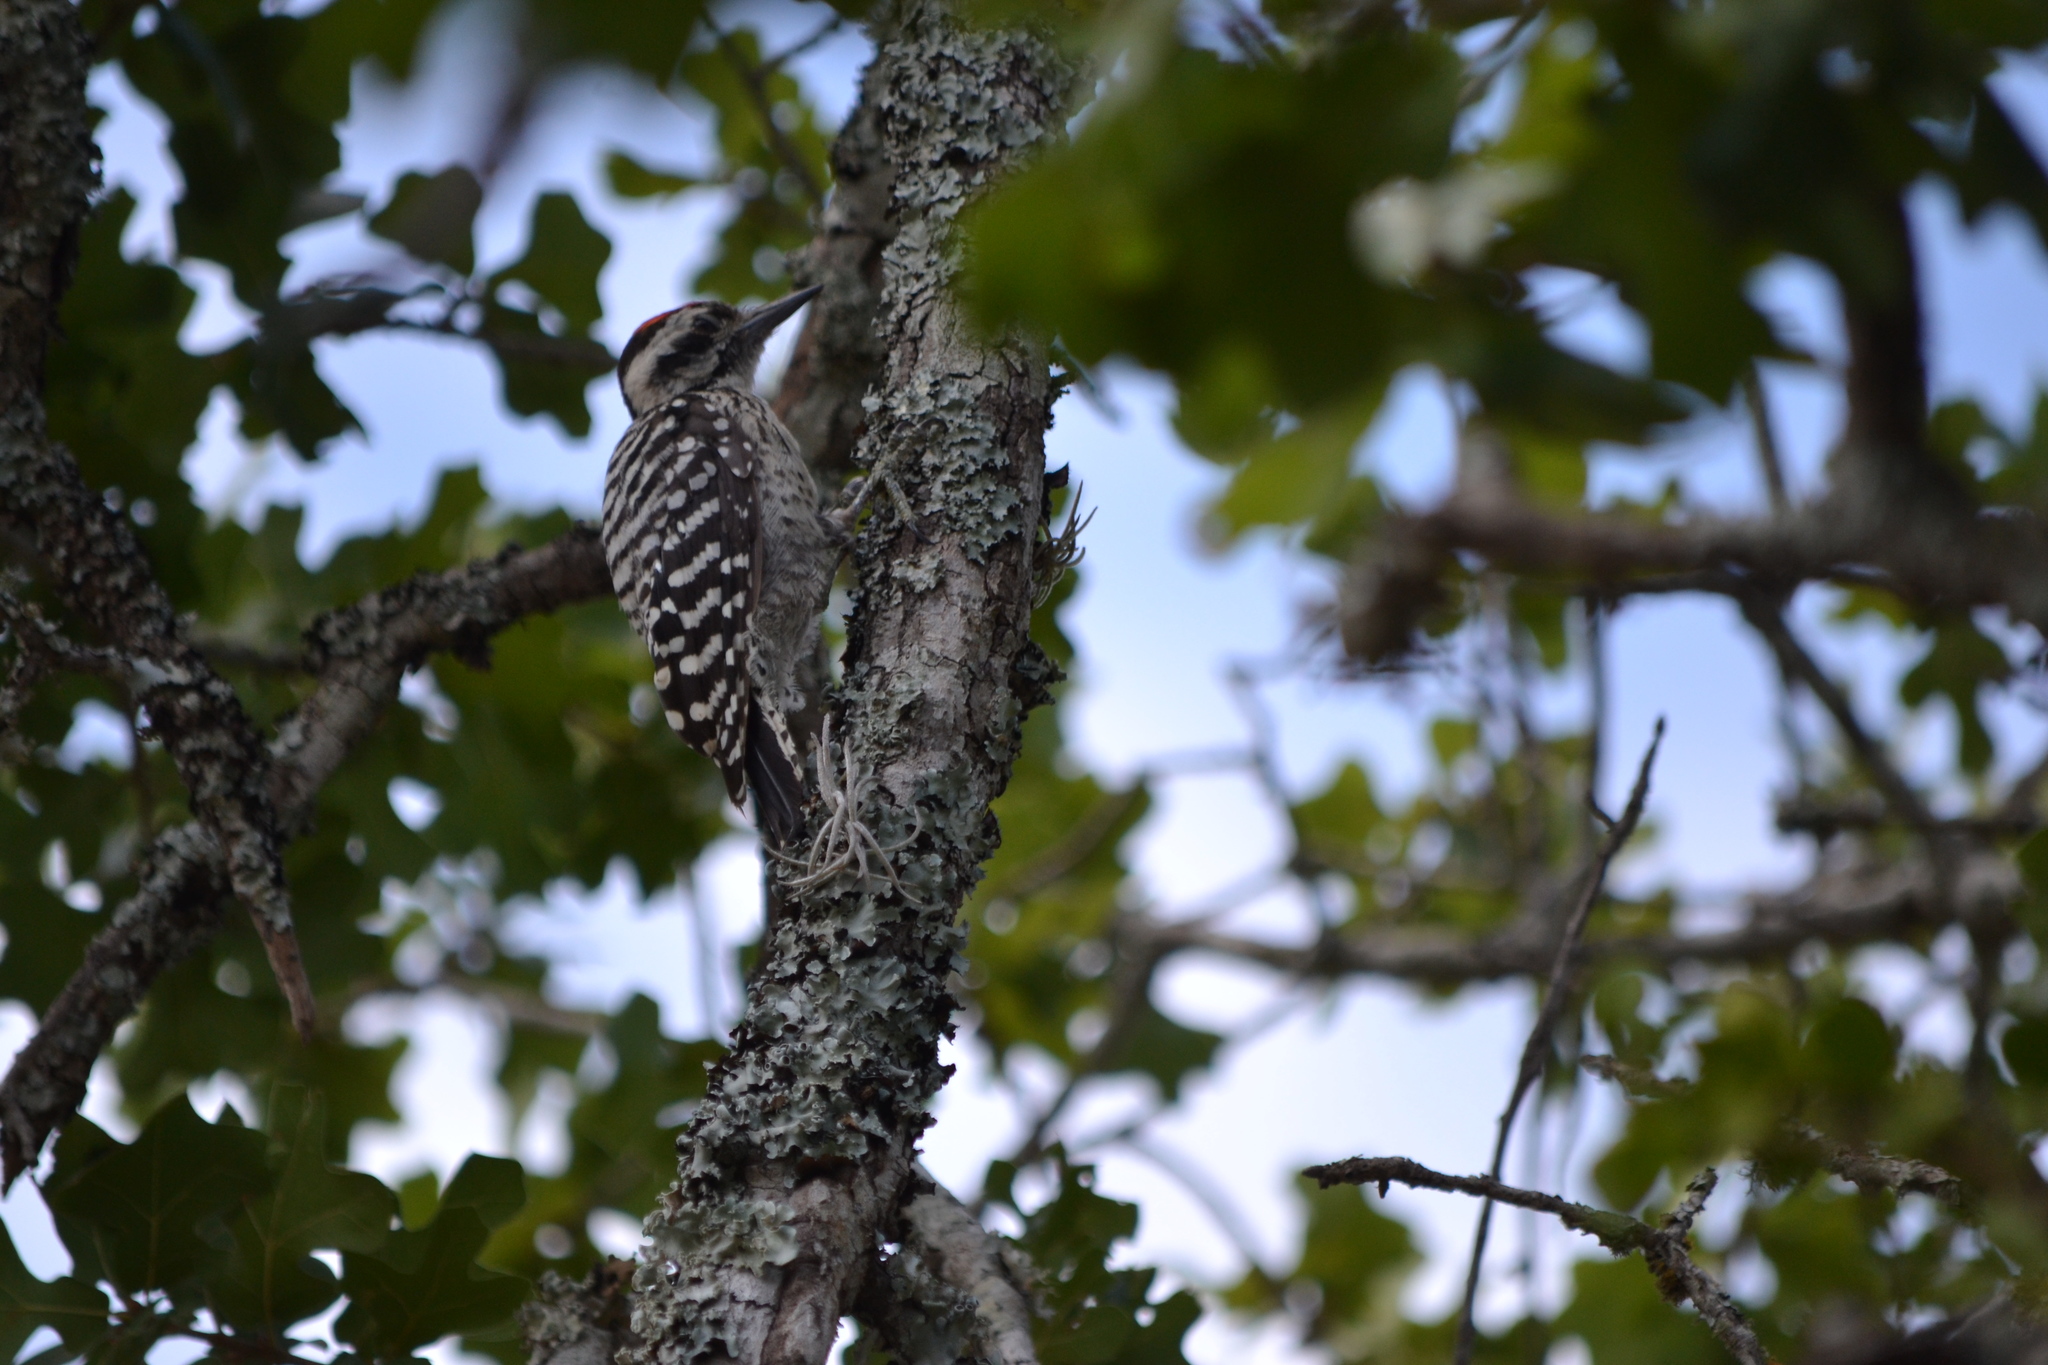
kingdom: Animalia
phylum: Chordata
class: Aves
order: Piciformes
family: Picidae
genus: Dryobates
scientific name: Dryobates scalaris
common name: Ladder-backed woodpecker
